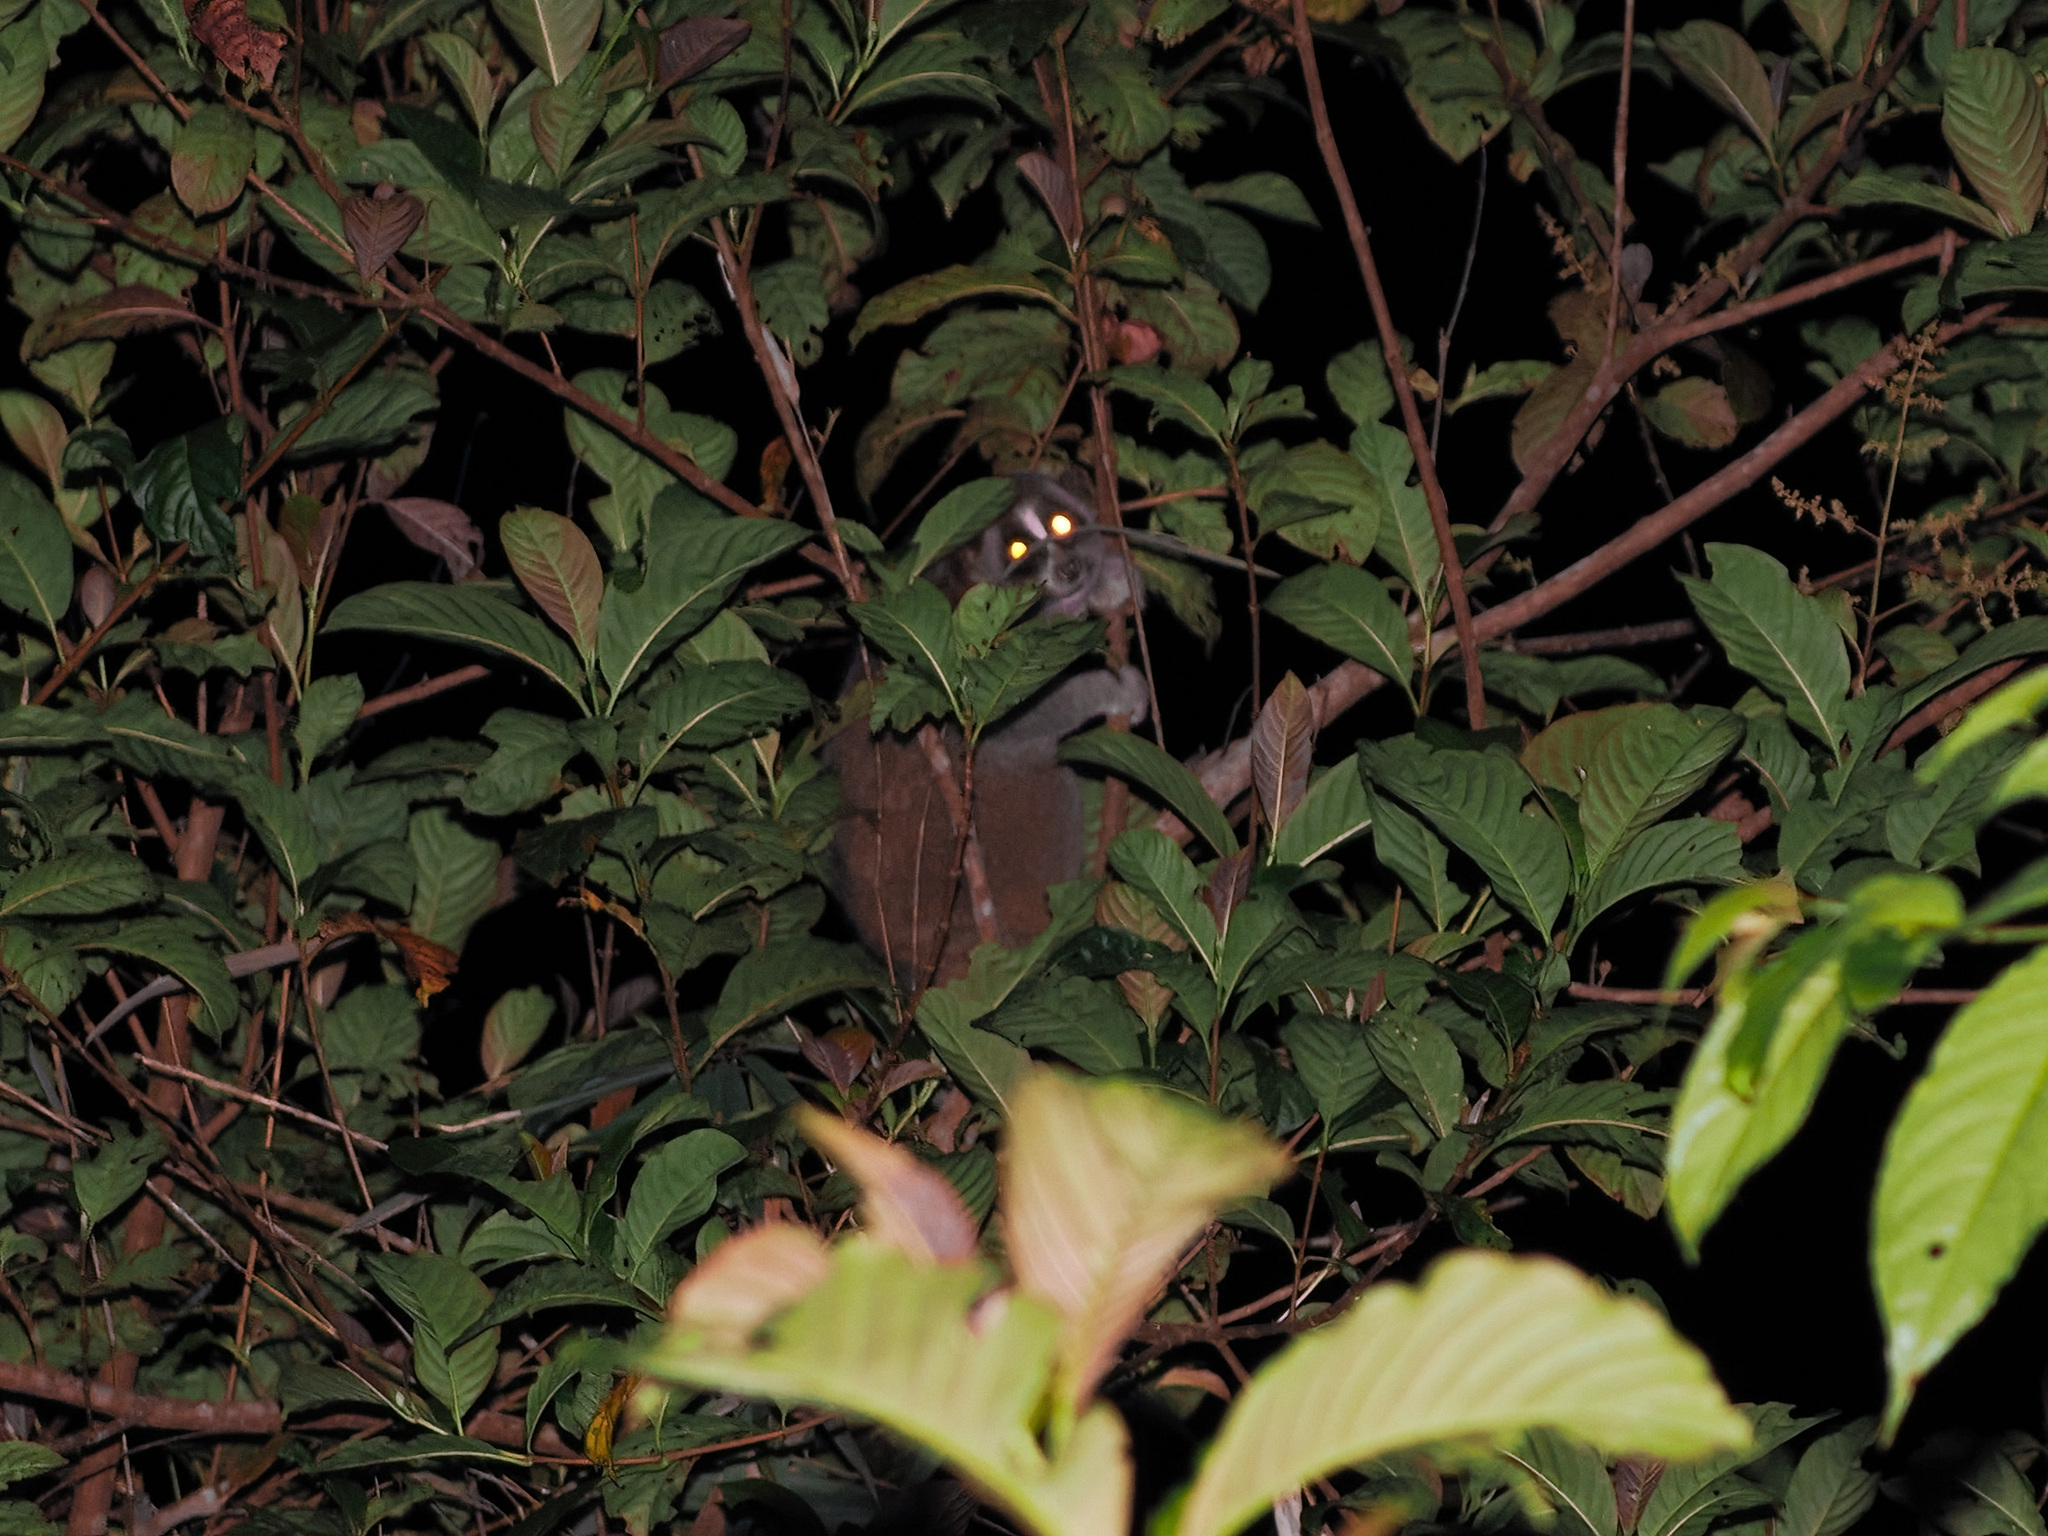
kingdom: Animalia
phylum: Chordata
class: Mammalia
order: Primates
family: Lorisidae
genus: Nycticebus
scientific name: Nycticebus coucang
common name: Sunda slow loris
